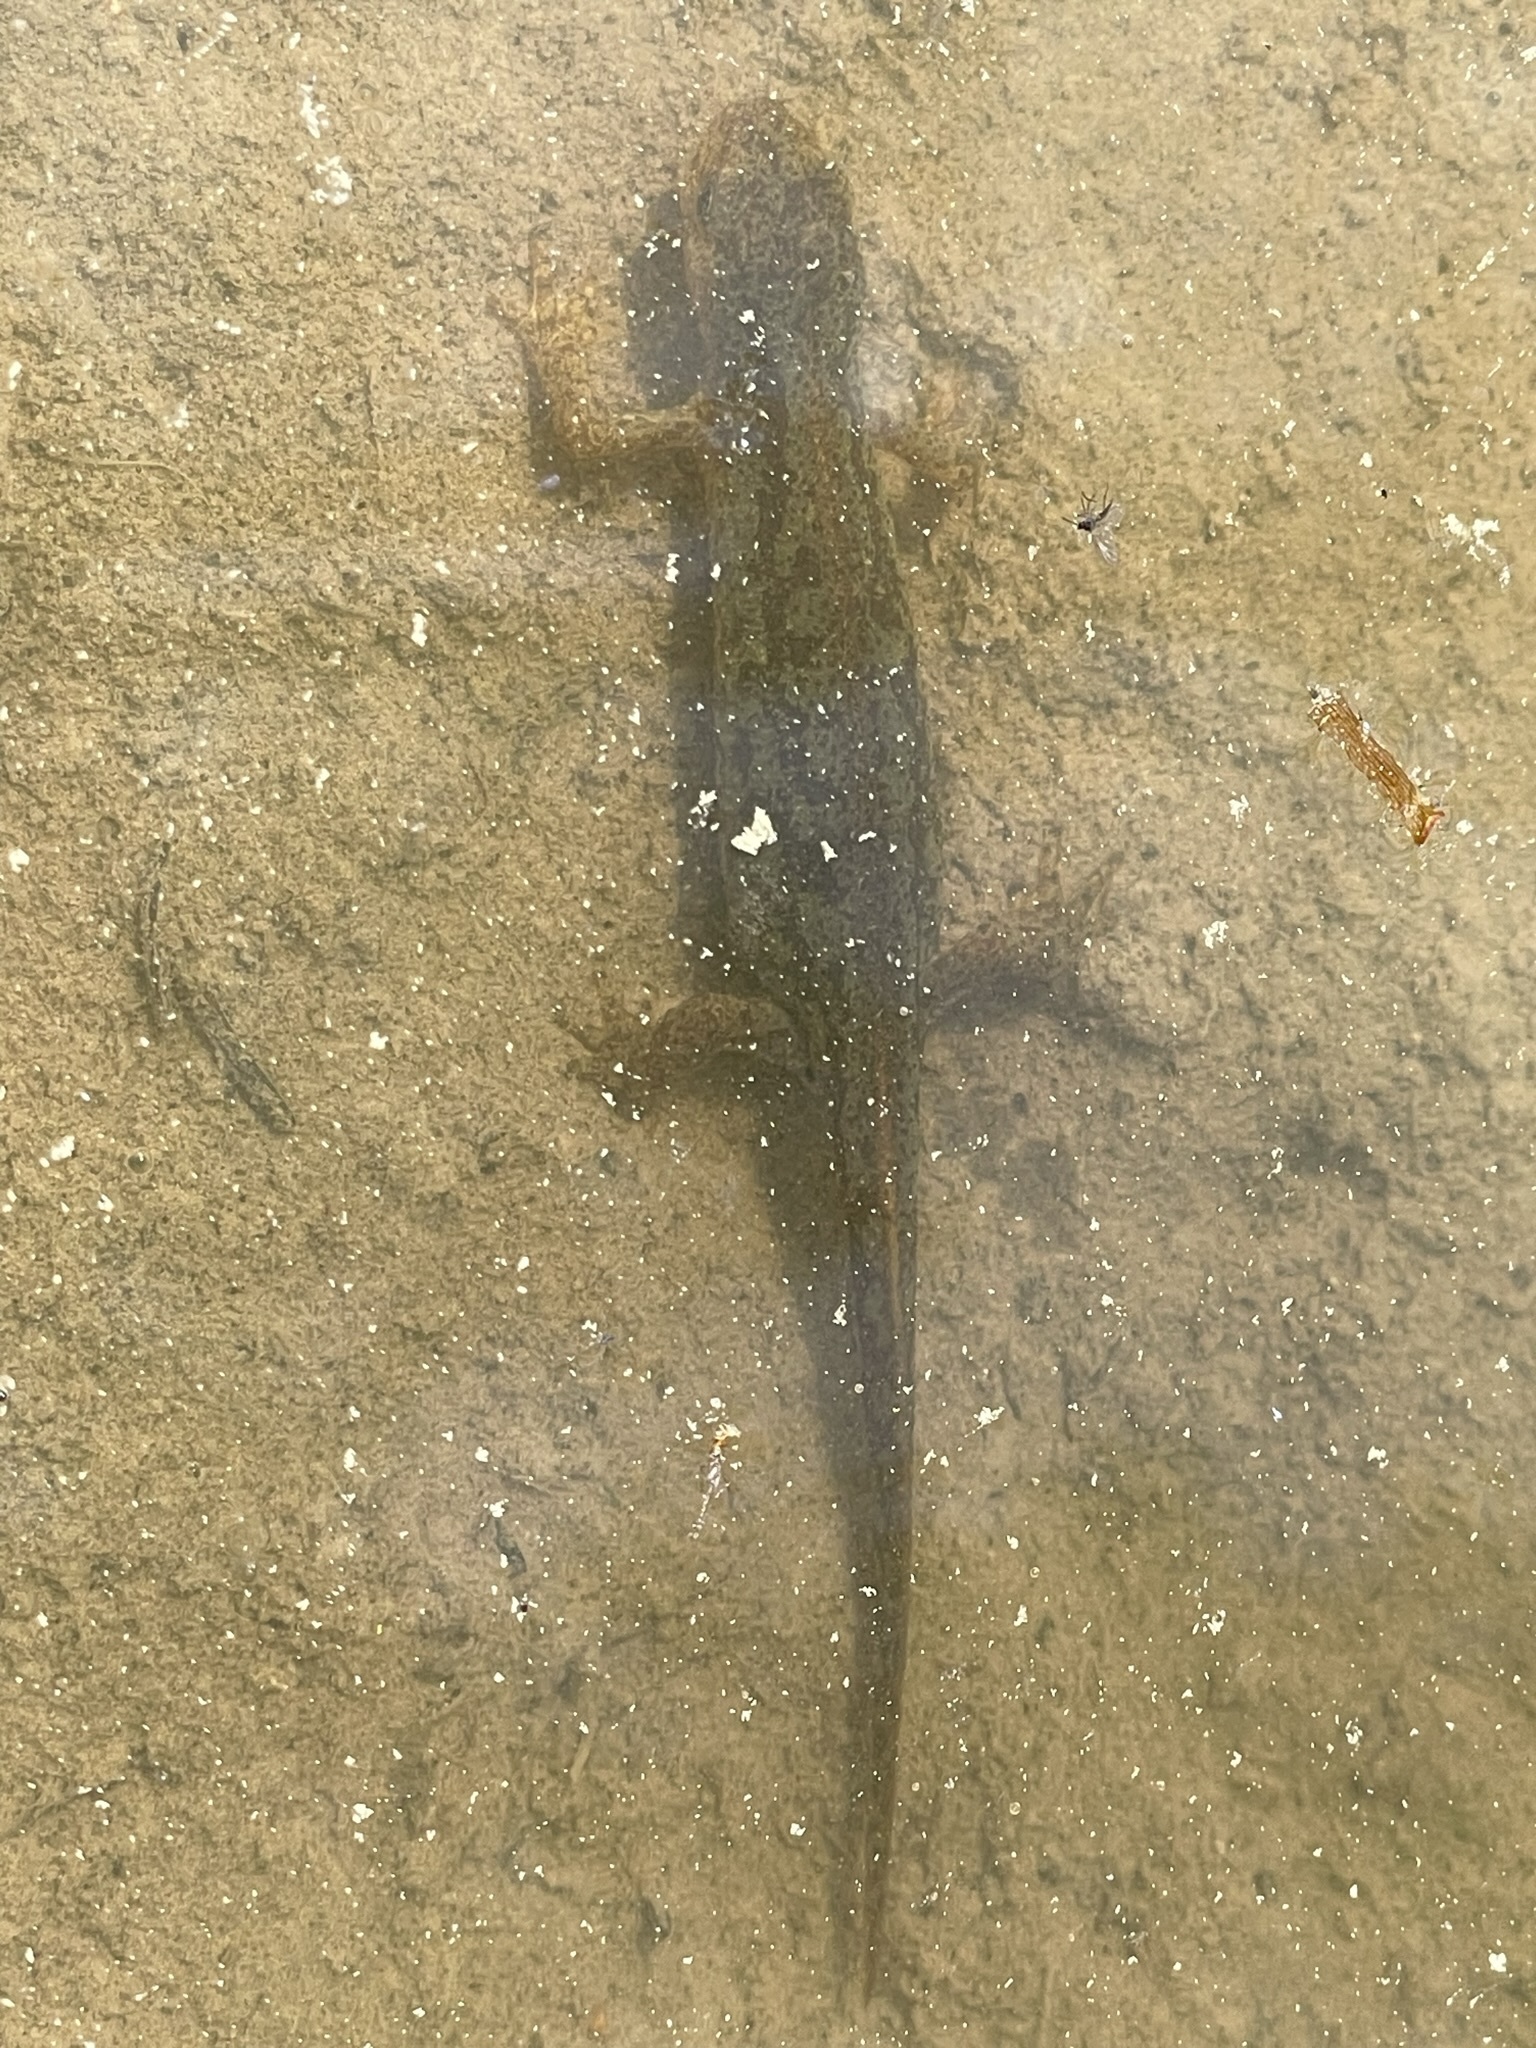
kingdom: Animalia
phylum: Chordata
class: Amphibia
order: Caudata
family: Salamandridae
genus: Ichthyosaura
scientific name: Ichthyosaura alpestris
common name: Alpine newt
